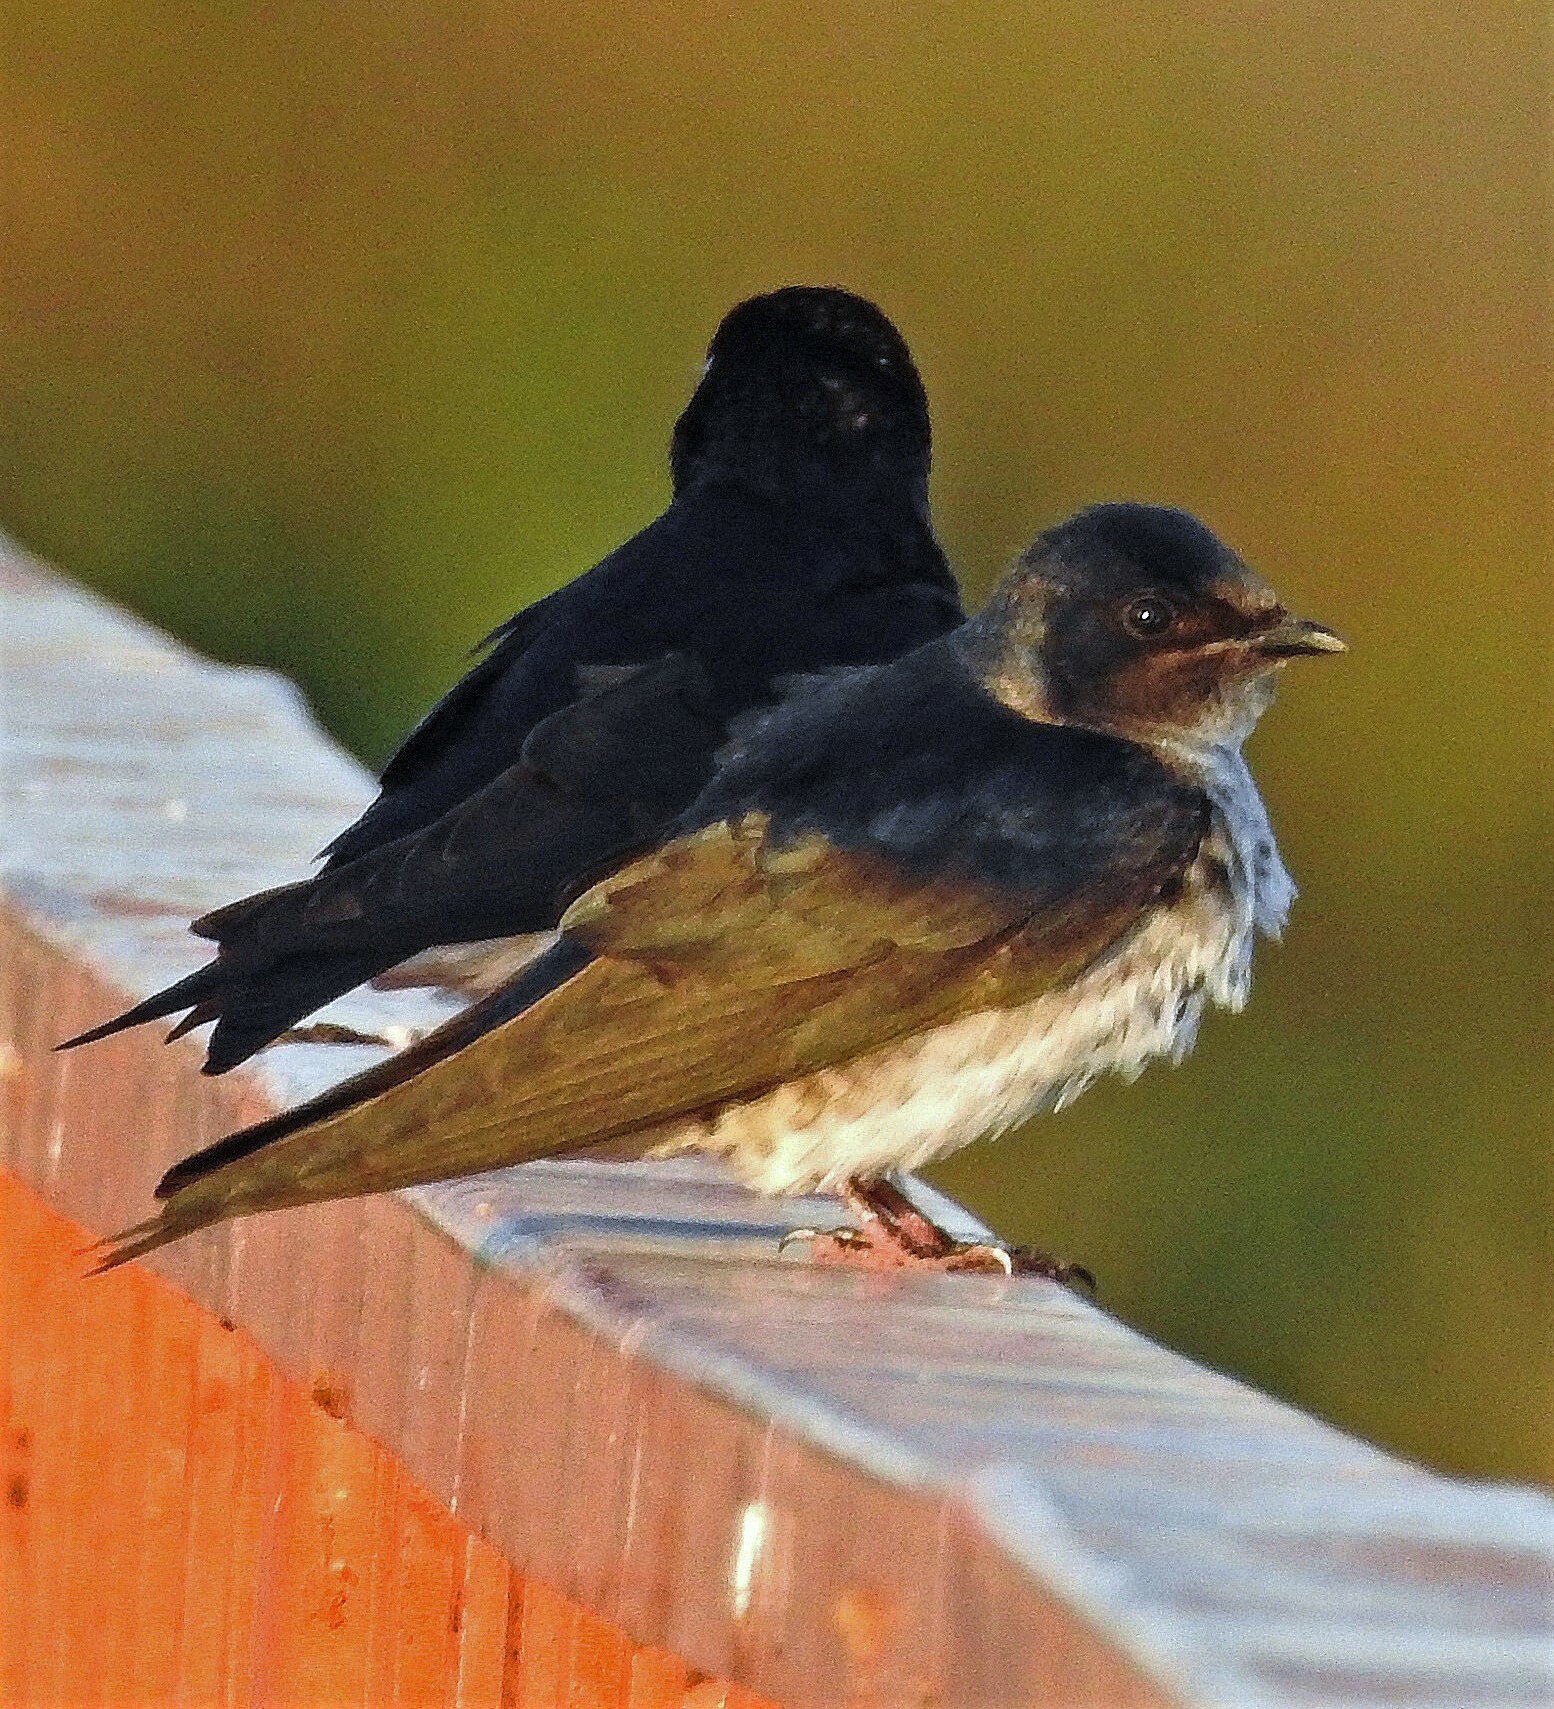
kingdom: Animalia
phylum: Chordata
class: Aves
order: Passeriformes
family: Hirundinidae
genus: Progne
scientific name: Progne chalybea
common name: Grey-breasted martin
